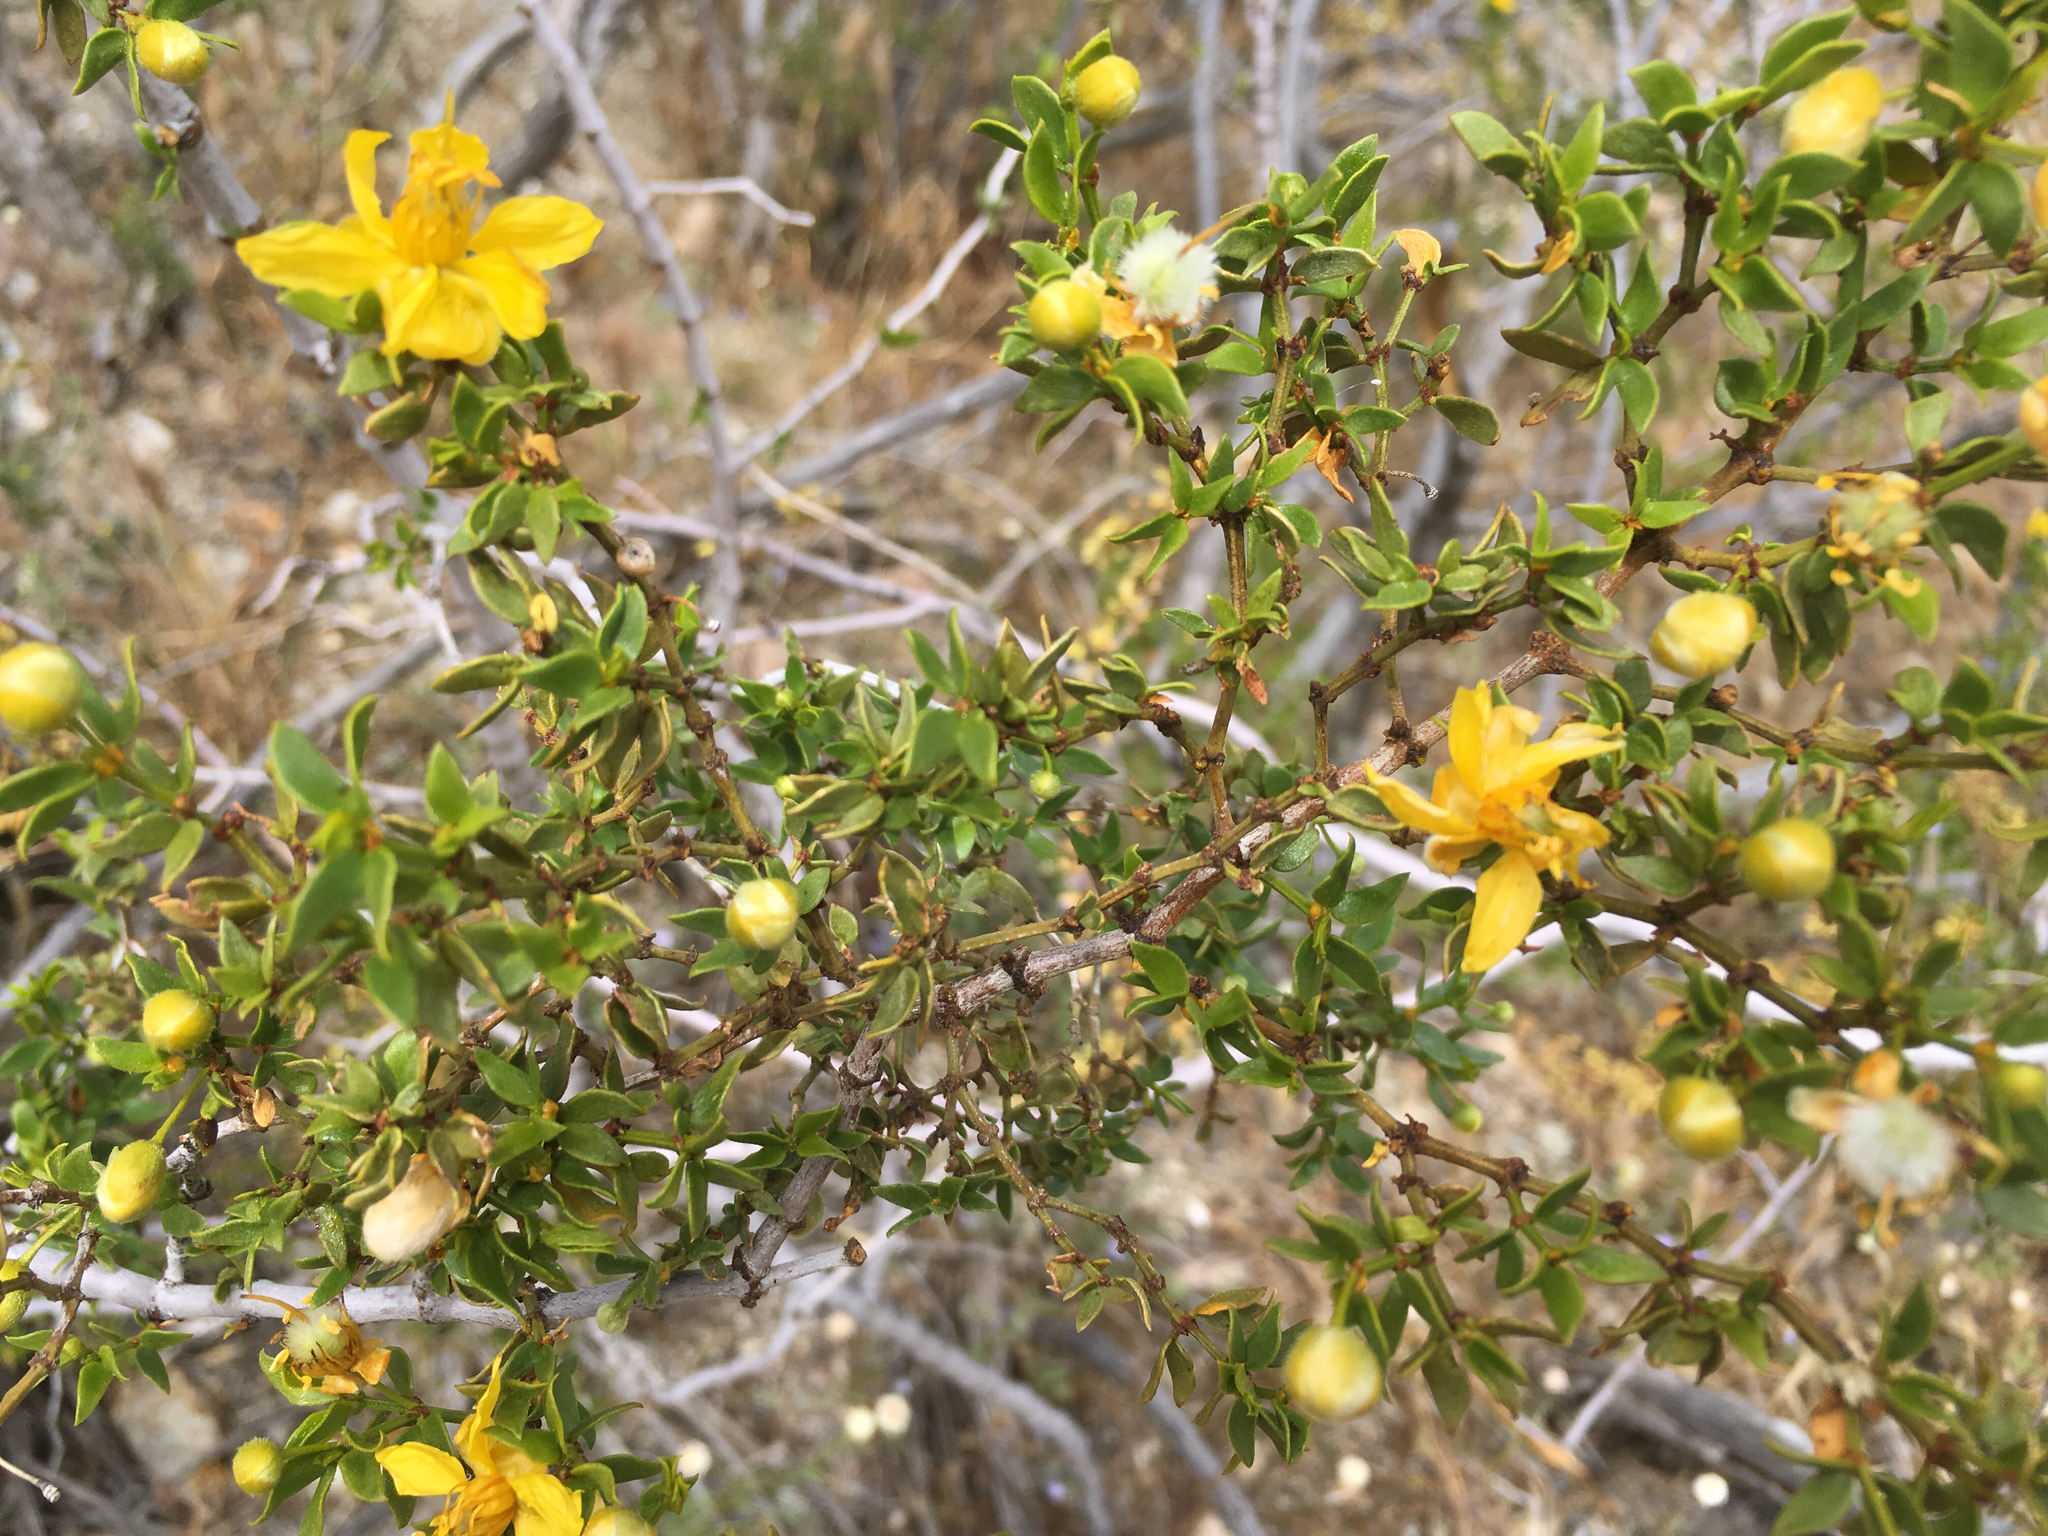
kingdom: Plantae
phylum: Tracheophyta
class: Magnoliopsida
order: Zygophyllales
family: Zygophyllaceae
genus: Larrea
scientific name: Larrea tridentata
